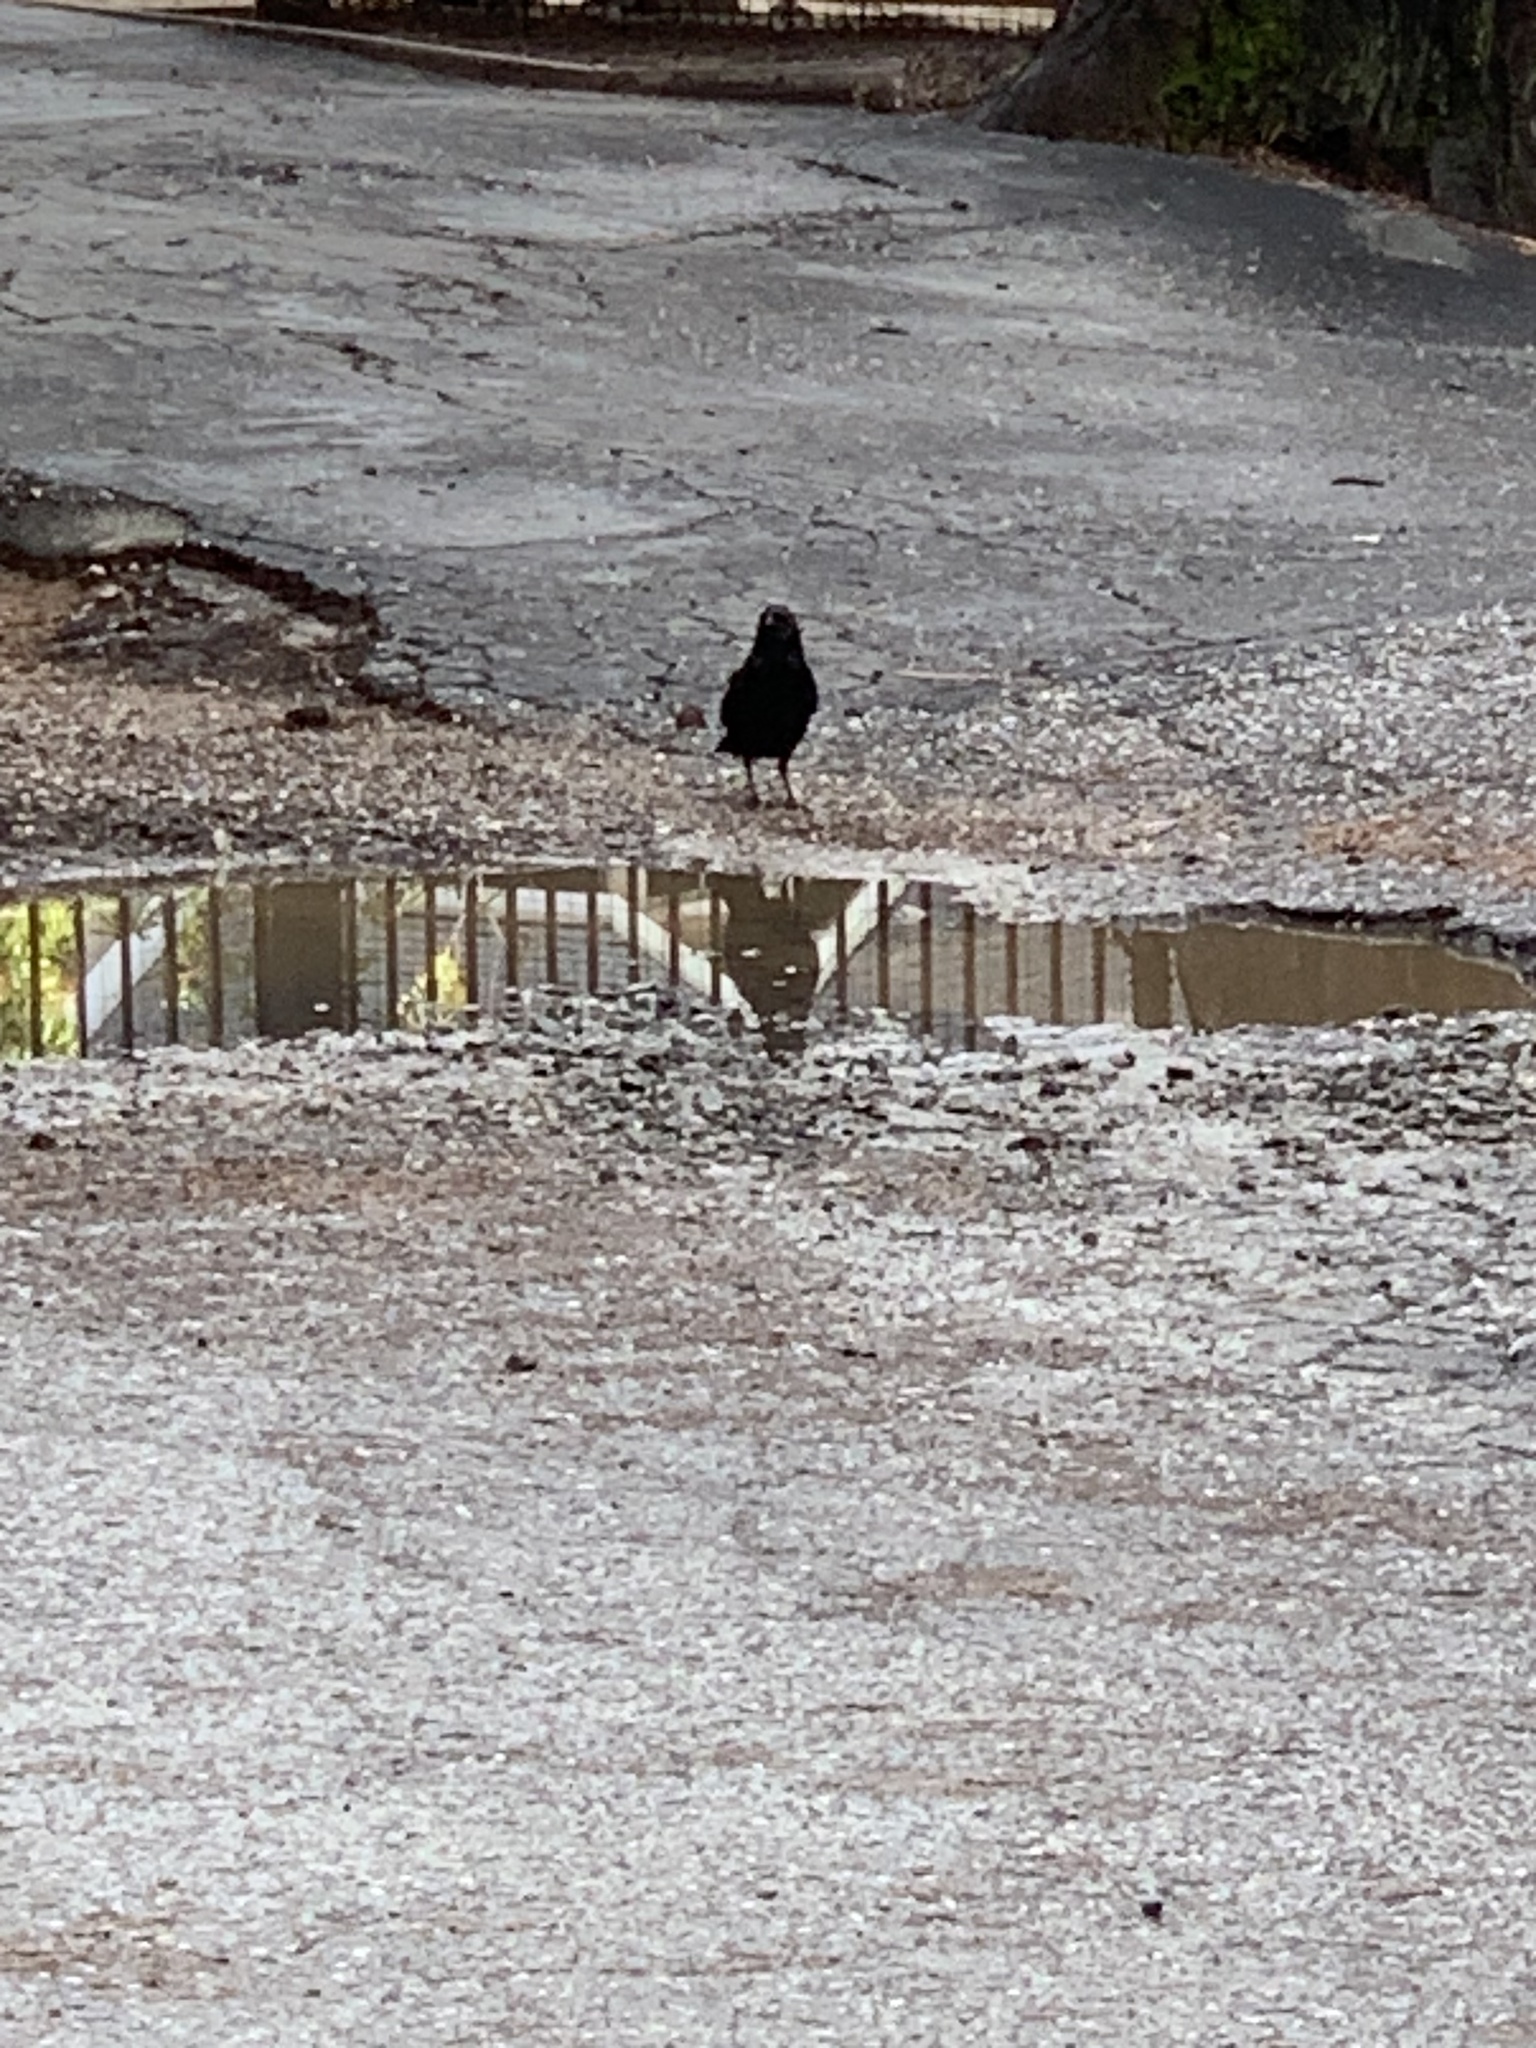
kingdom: Animalia
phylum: Chordata
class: Aves
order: Passeriformes
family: Corvidae
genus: Corvus
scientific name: Corvus brachyrhynchos
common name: American crow
